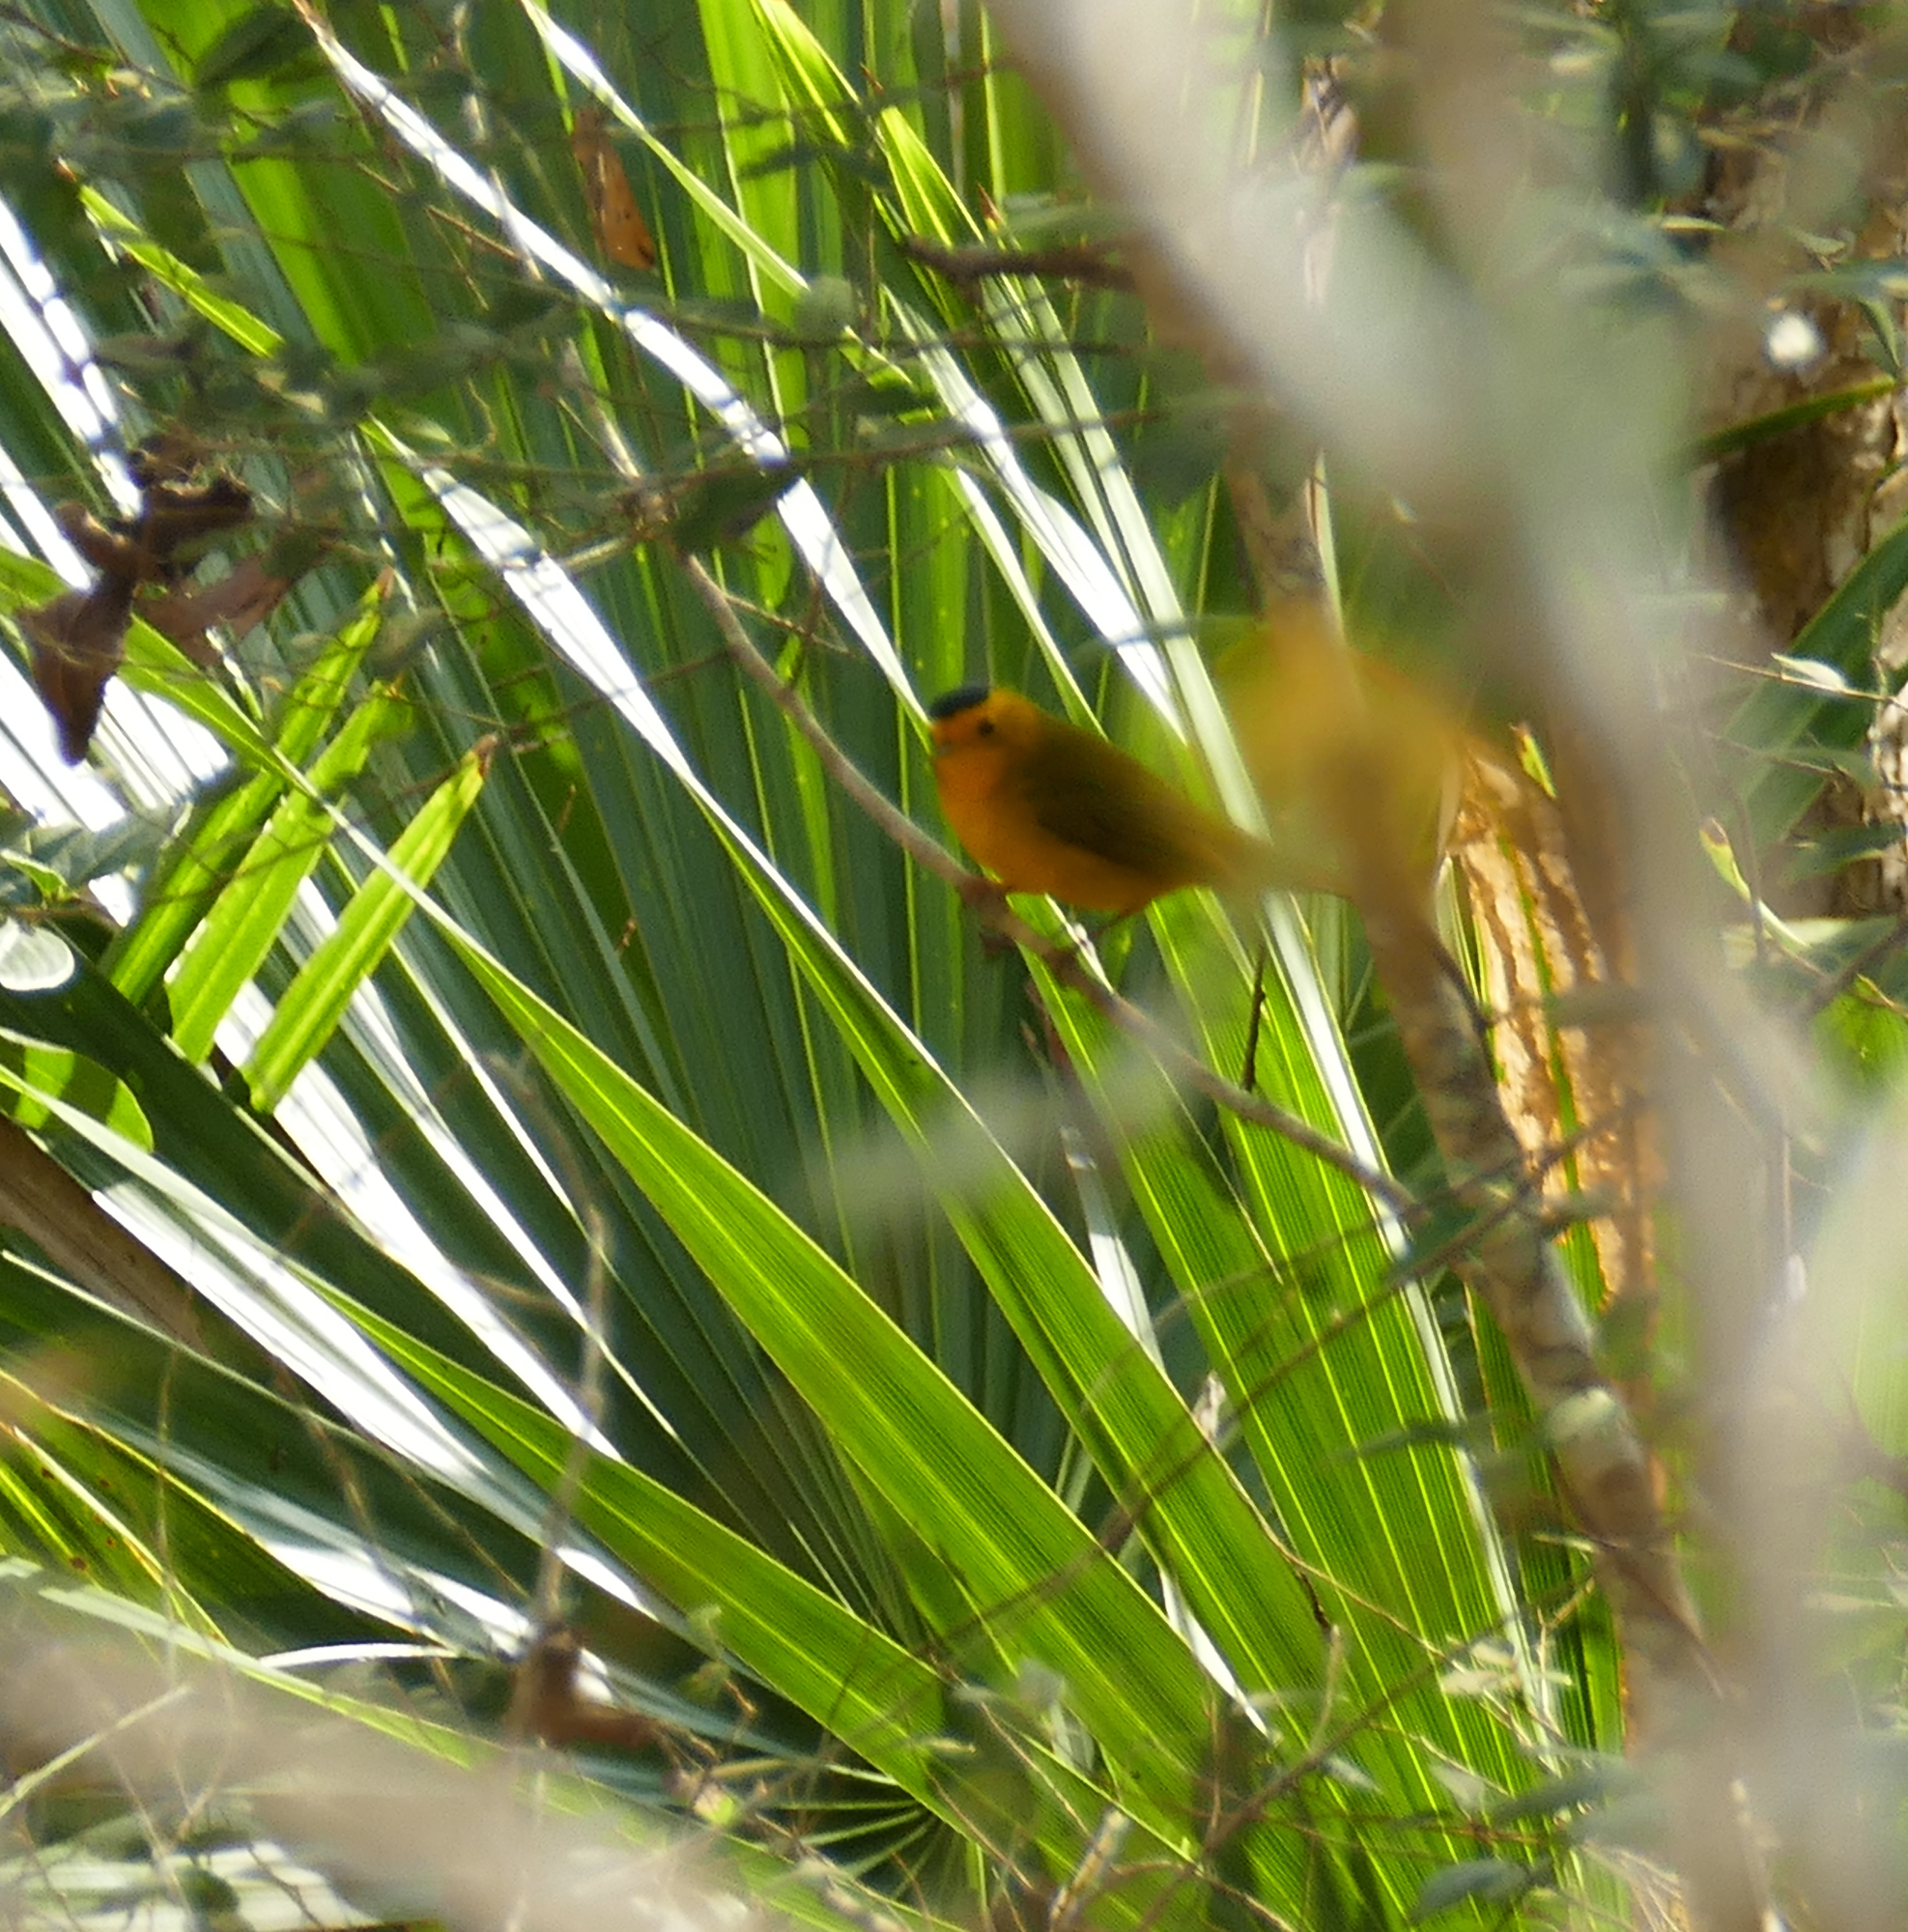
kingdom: Animalia
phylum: Chordata
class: Aves
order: Passeriformes
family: Parulidae
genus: Cardellina
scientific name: Cardellina pusilla
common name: Wilson's warbler
